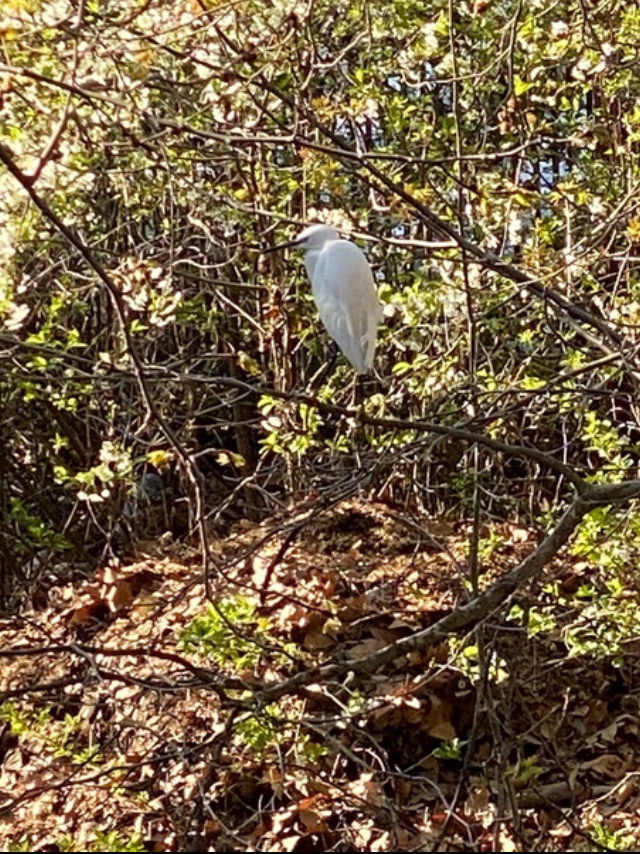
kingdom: Animalia
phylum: Chordata
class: Aves
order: Pelecaniformes
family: Ardeidae
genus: Egretta
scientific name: Egretta garzetta
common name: Little egret
